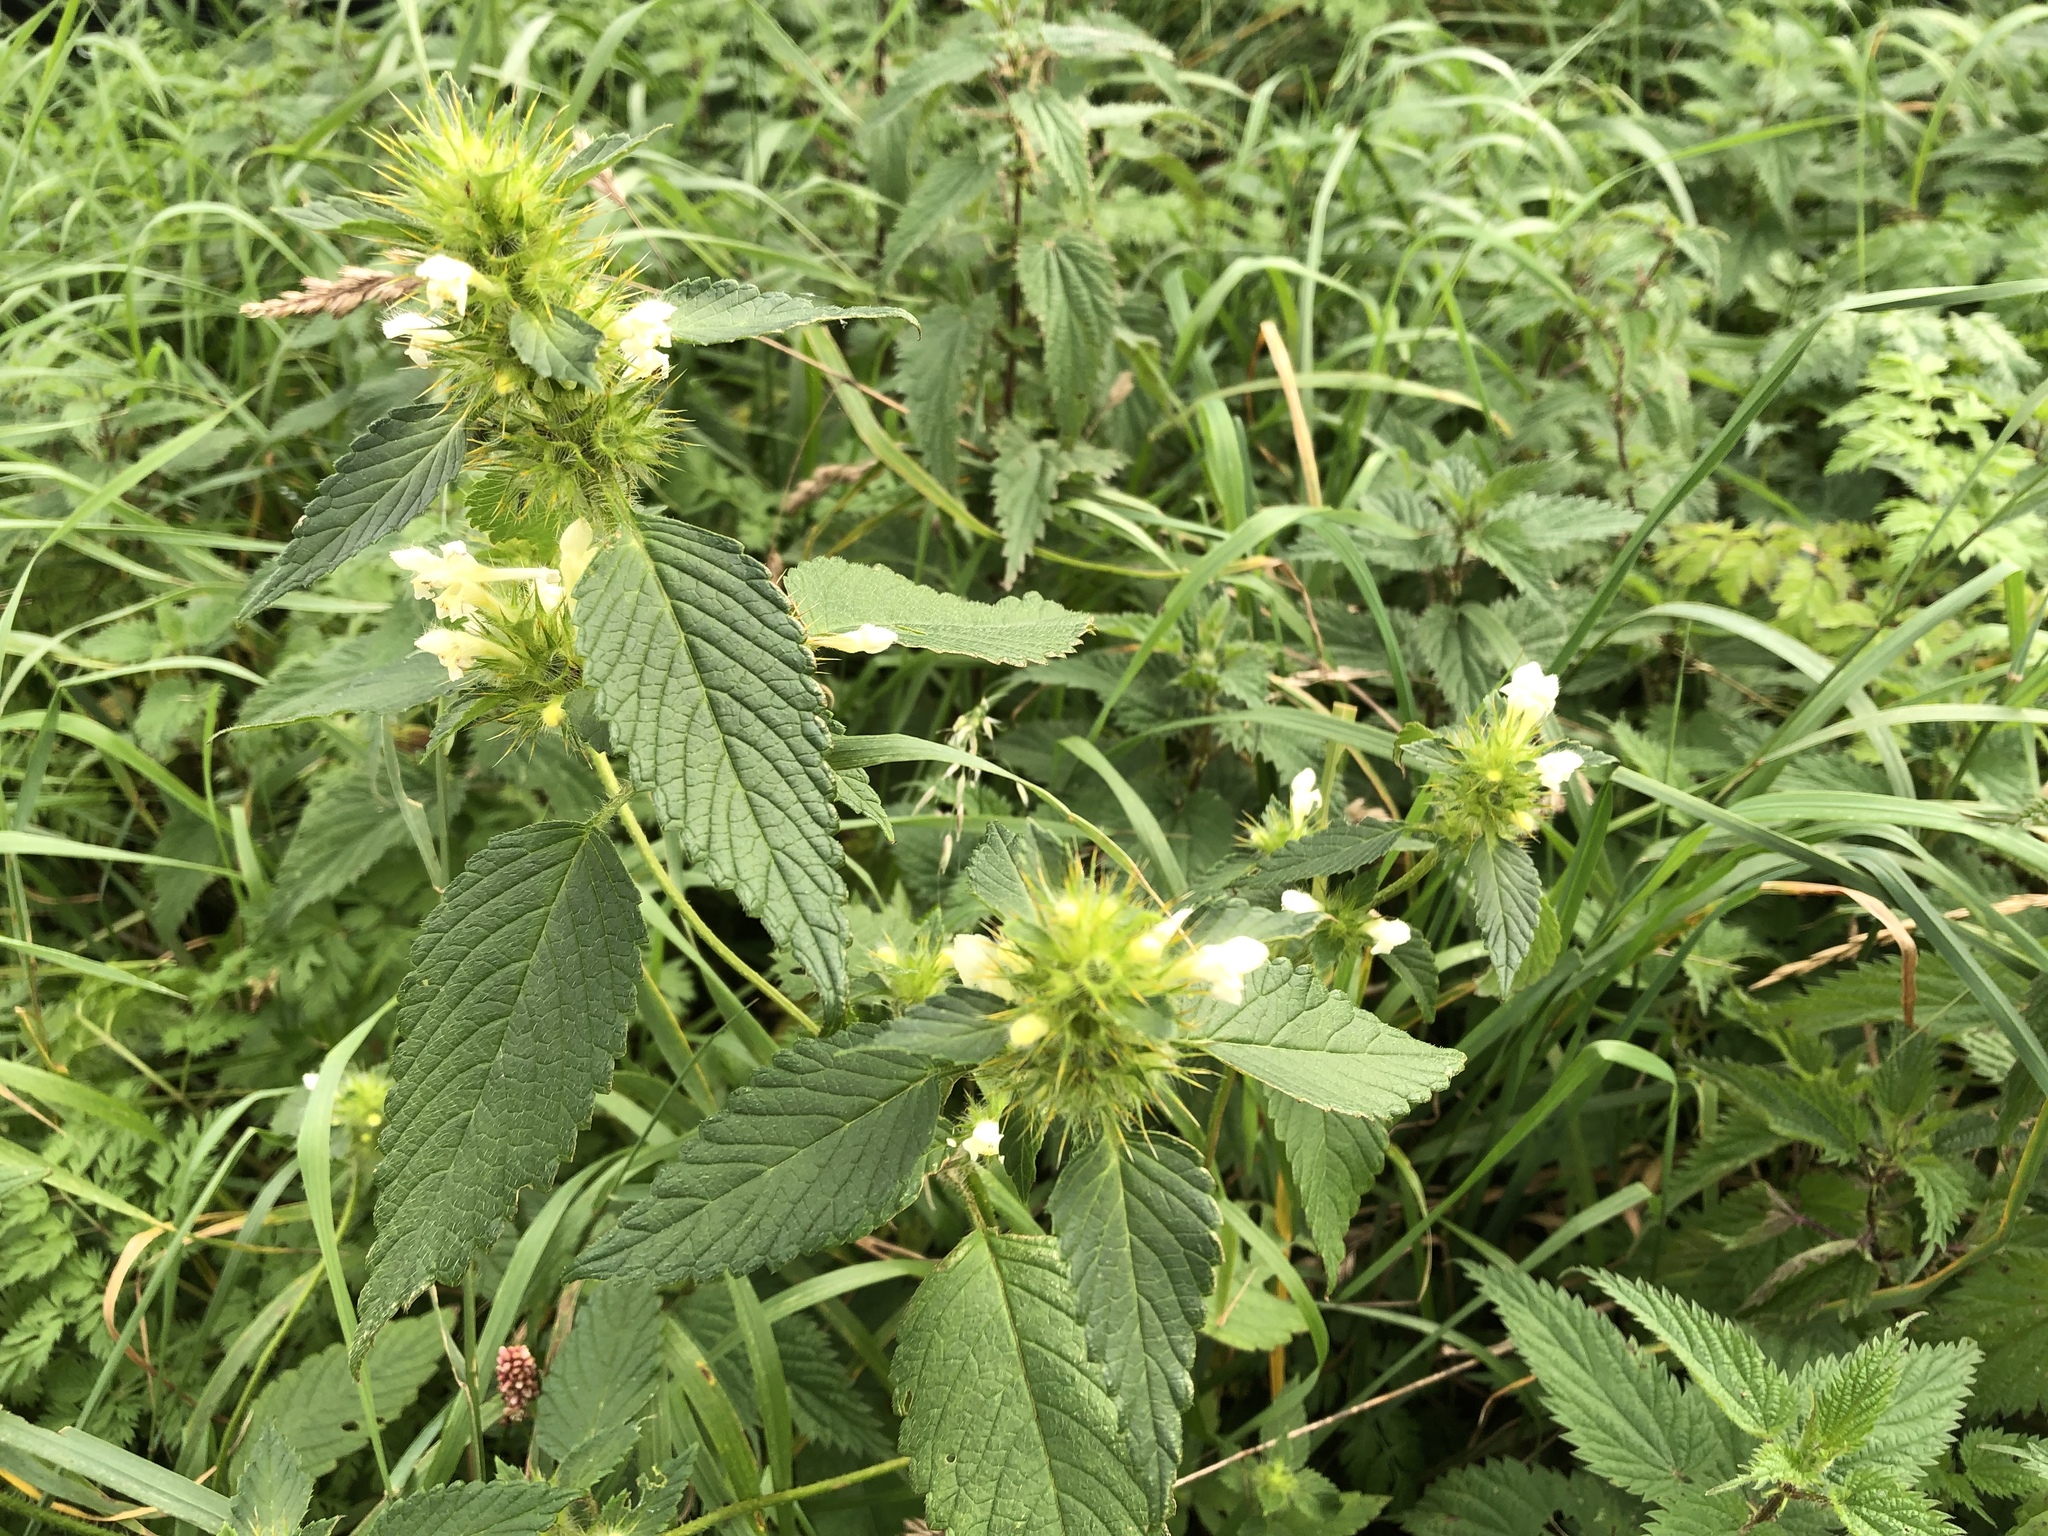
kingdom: Plantae
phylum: Tracheophyta
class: Magnoliopsida
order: Lamiales
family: Lamiaceae
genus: Galeopsis
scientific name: Galeopsis tetrahit
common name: Common hemp-nettle
